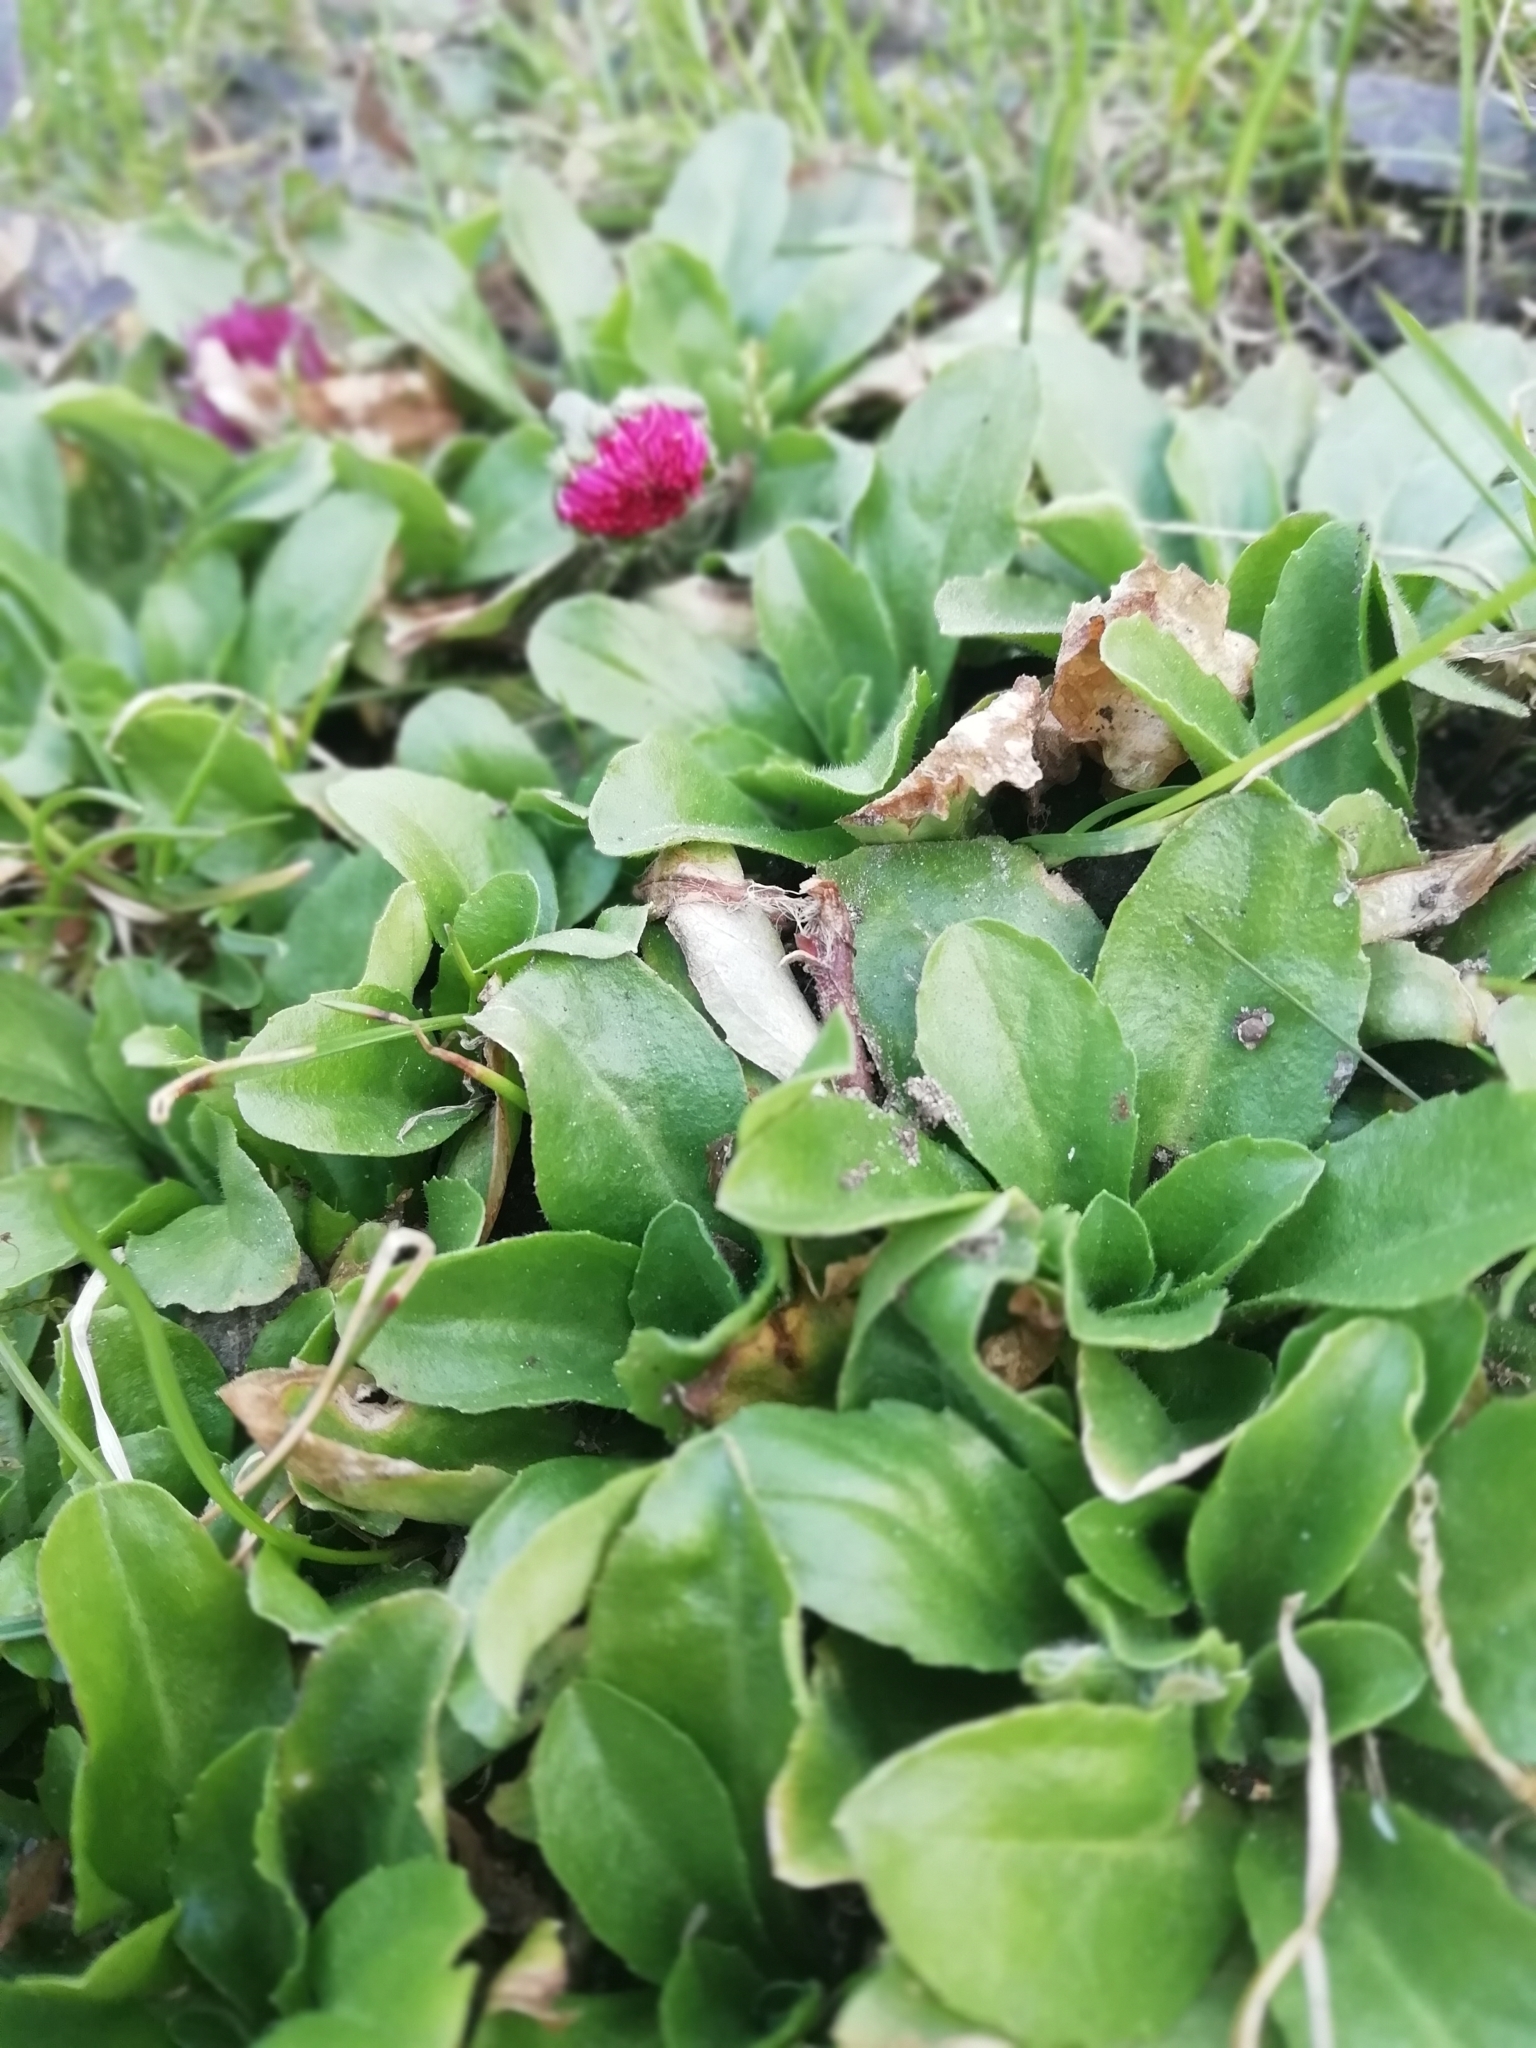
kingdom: Plantae
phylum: Tracheophyta
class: Magnoliopsida
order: Asterales
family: Asteraceae
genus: Bellis
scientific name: Bellis perennis
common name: Lawndaisy
